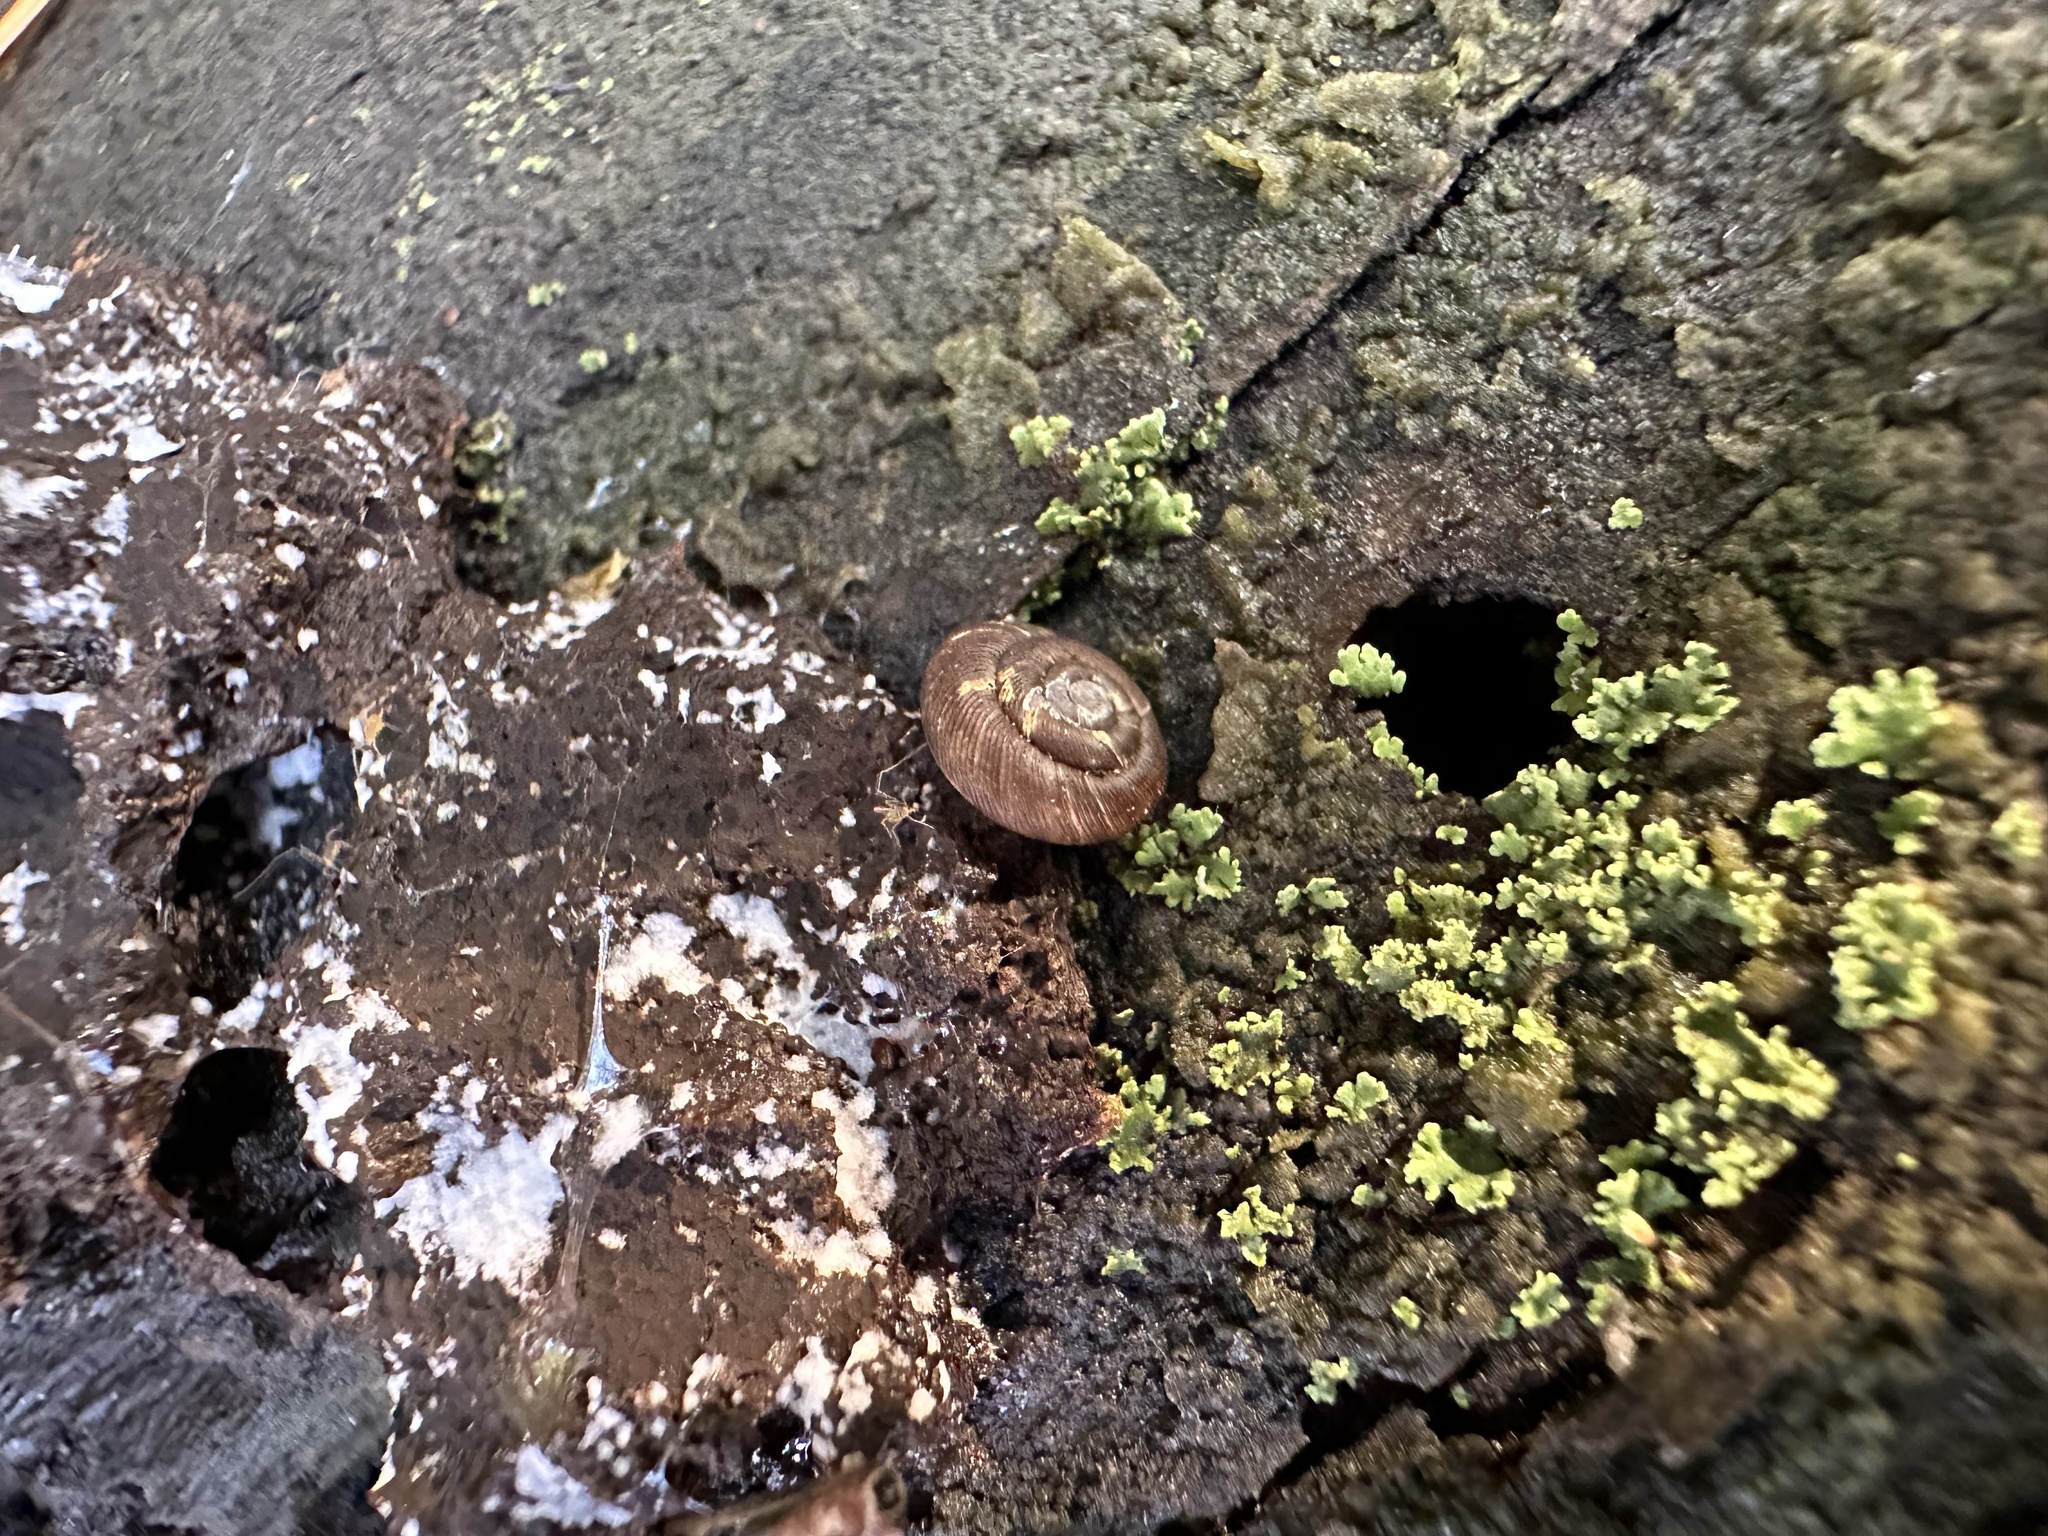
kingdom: Animalia
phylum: Mollusca
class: Gastropoda
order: Stylommatophora
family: Discidae
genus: Discus
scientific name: Discus ruderatus
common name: Brown disc snail
